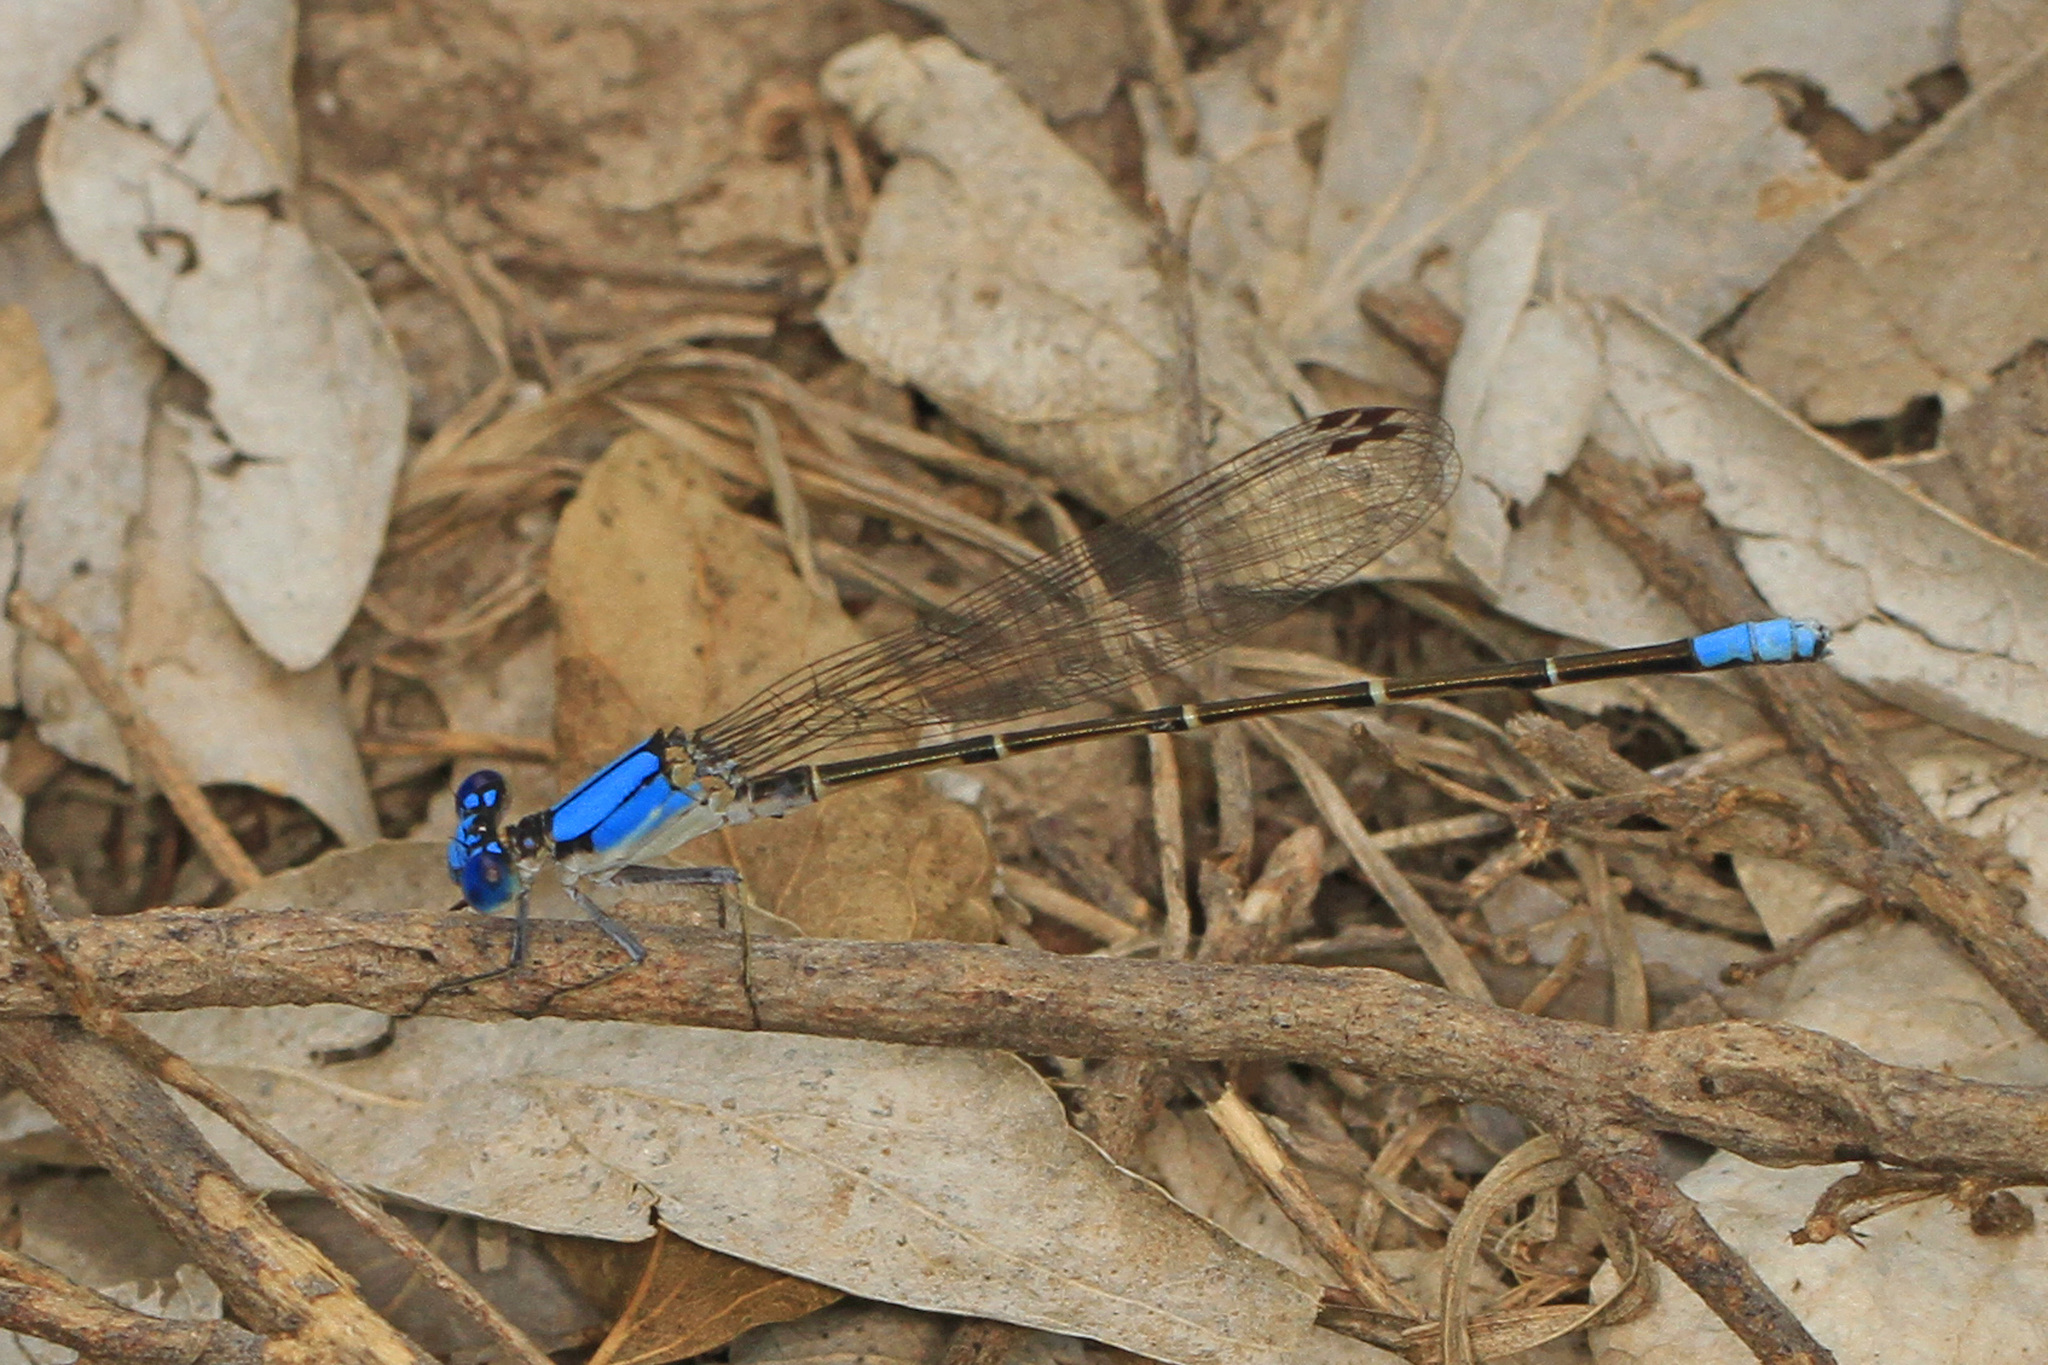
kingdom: Animalia
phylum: Arthropoda
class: Insecta
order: Odonata
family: Coenagrionidae
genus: Argia
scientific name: Argia apicalis
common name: Blue-fronted dancer
